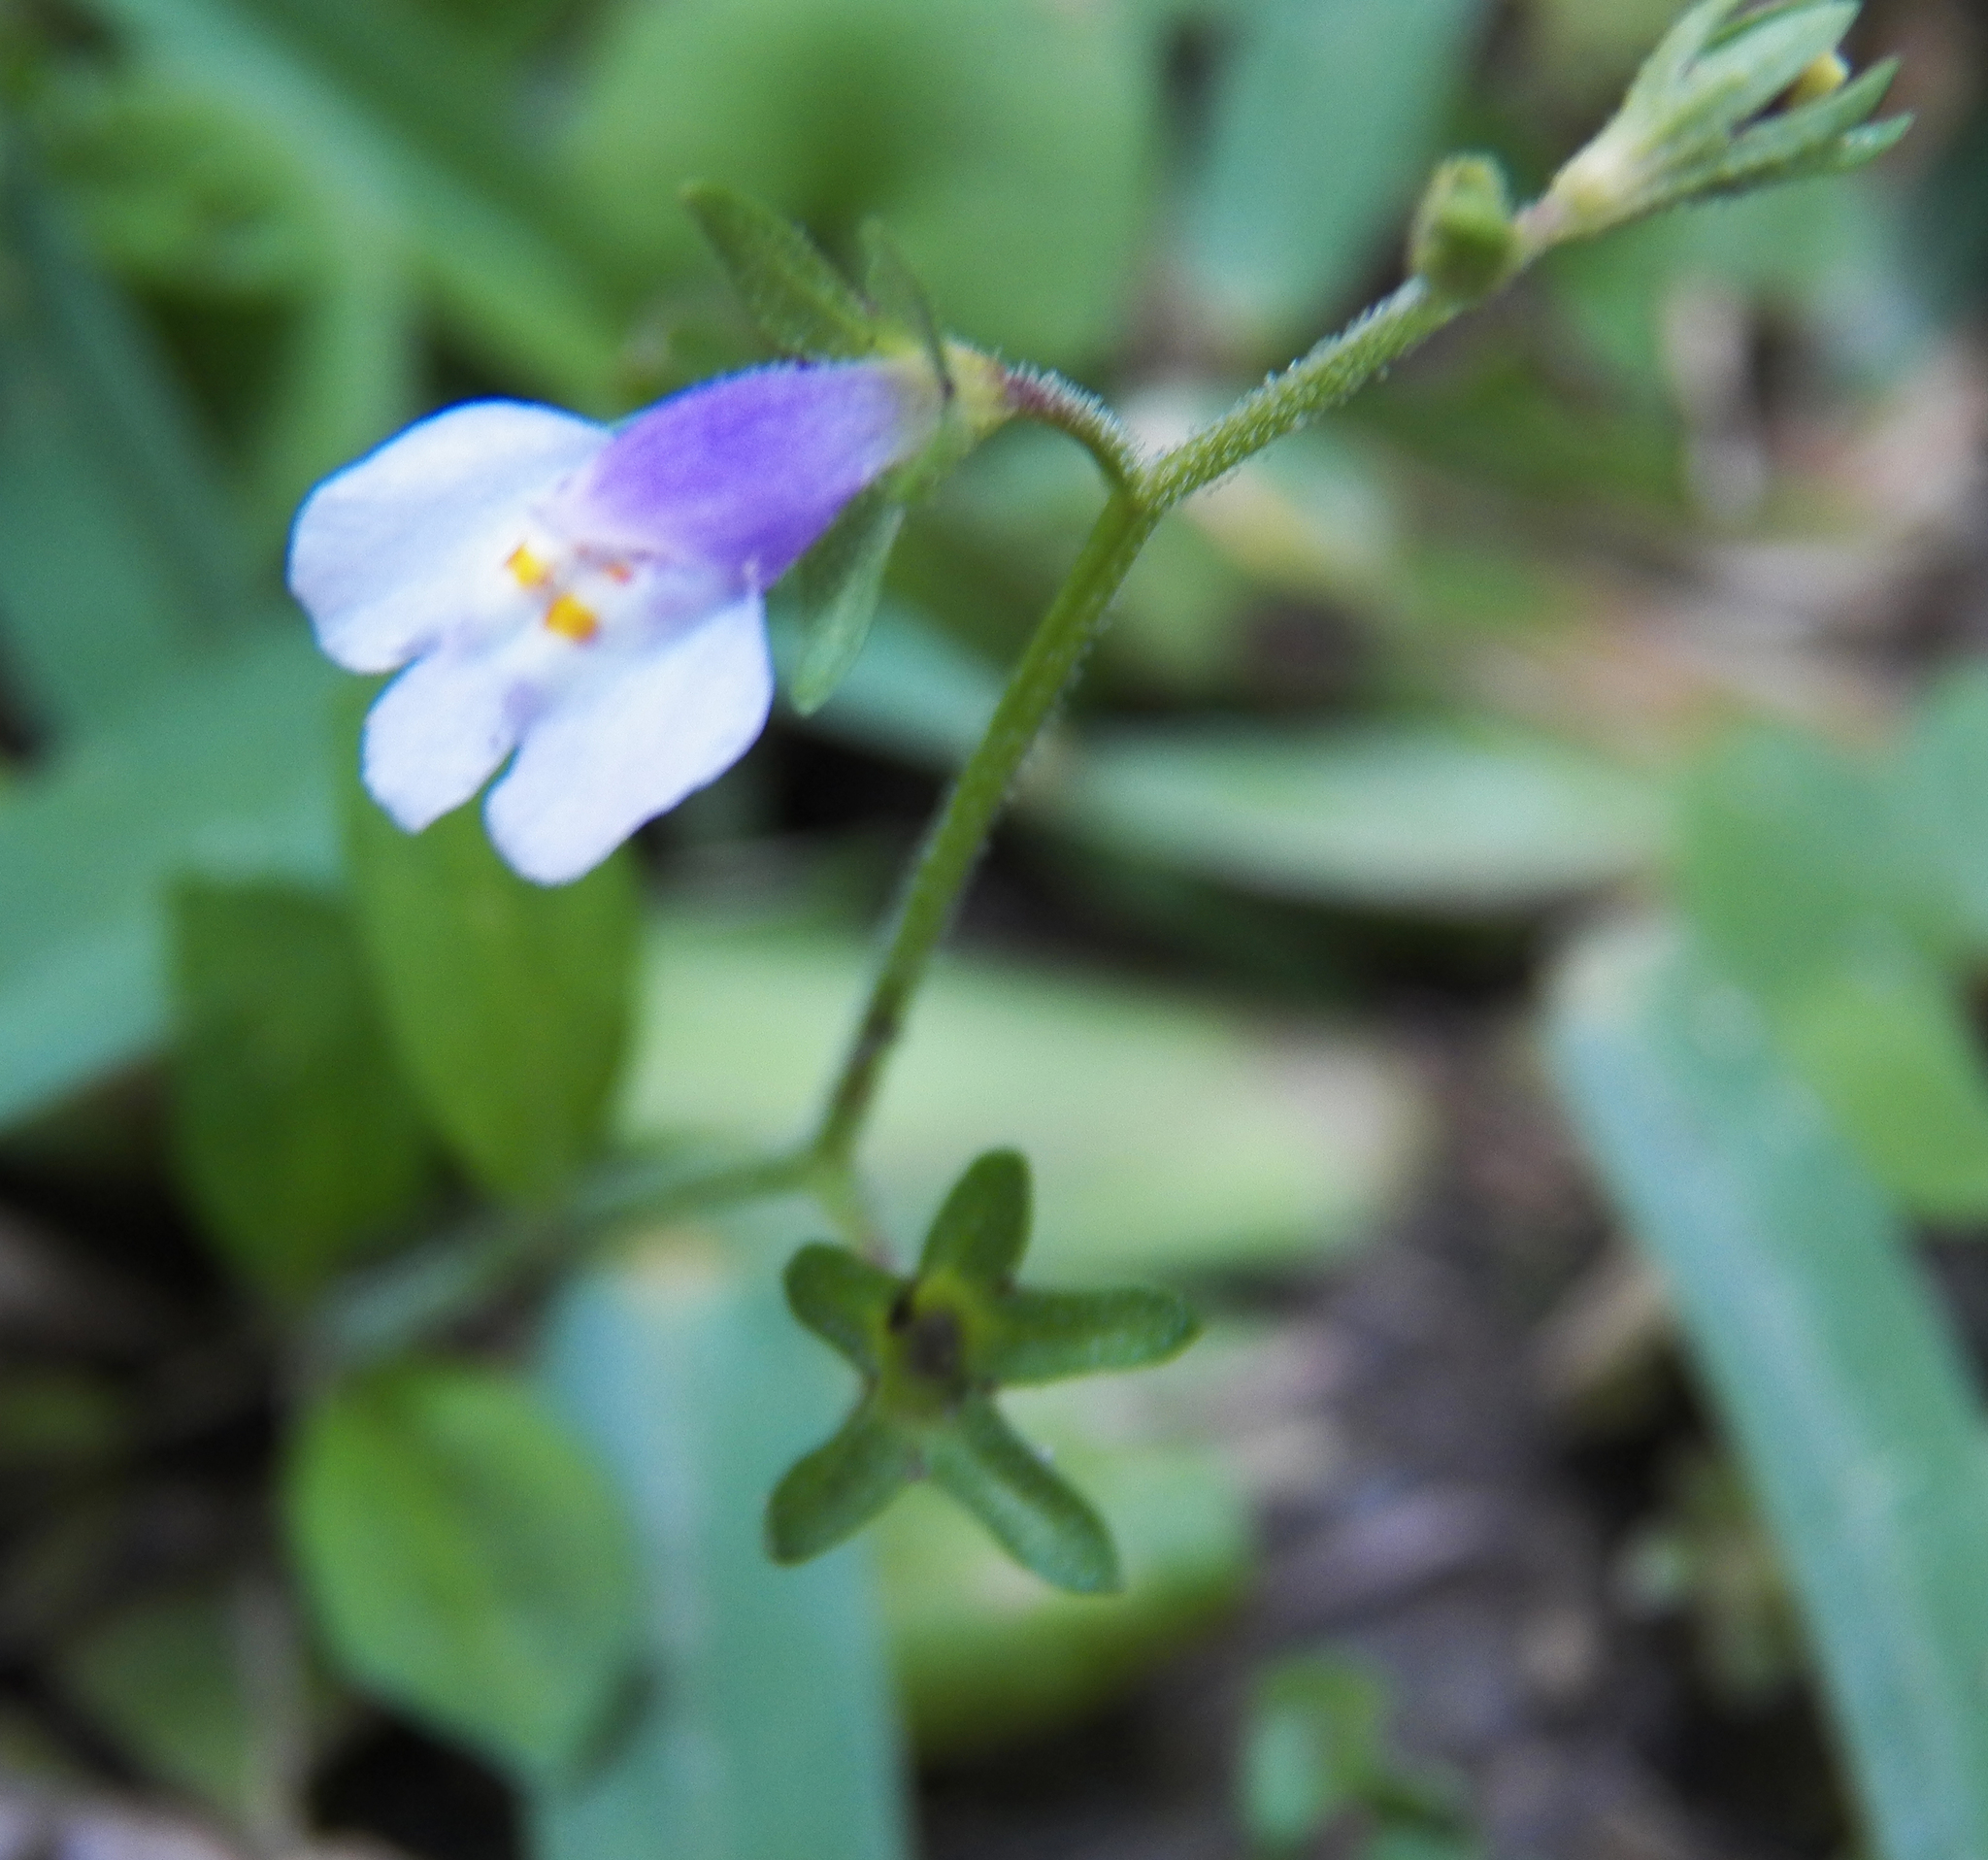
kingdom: Plantae
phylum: Tracheophyta
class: Magnoliopsida
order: Lamiales
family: Mazaceae
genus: Mazus
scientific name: Mazus pumilus
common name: Japanese mazus
